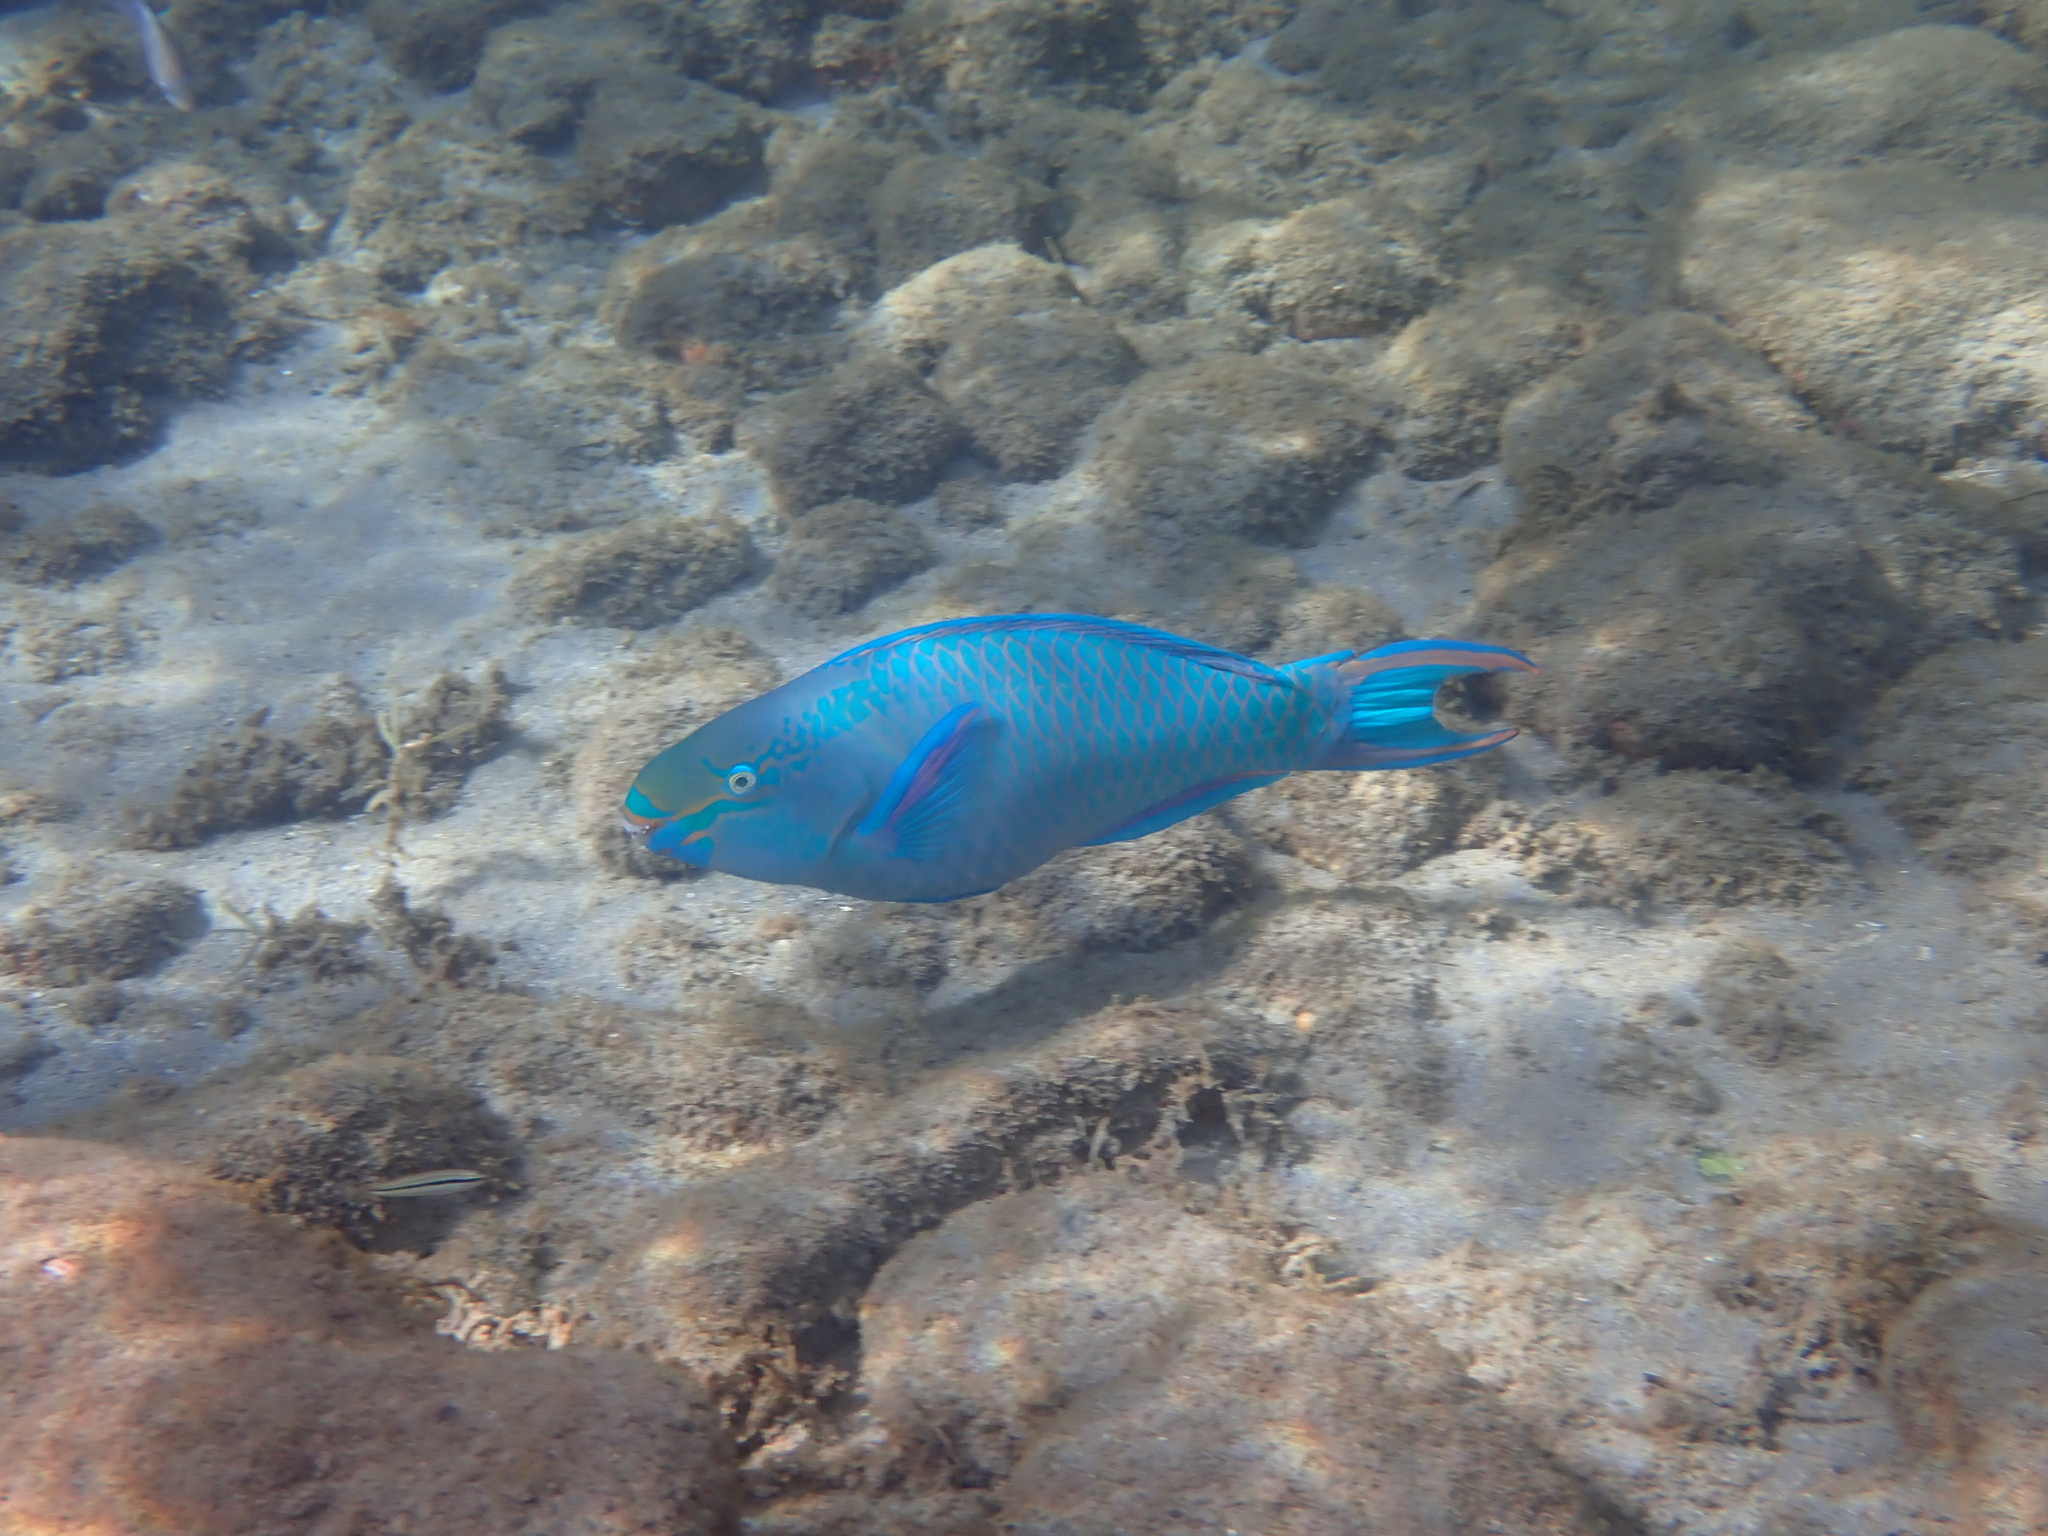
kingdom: Animalia
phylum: Chordata
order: Perciformes
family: Scaridae
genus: Scarus
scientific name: Scarus vetula
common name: Queen parrotfish
